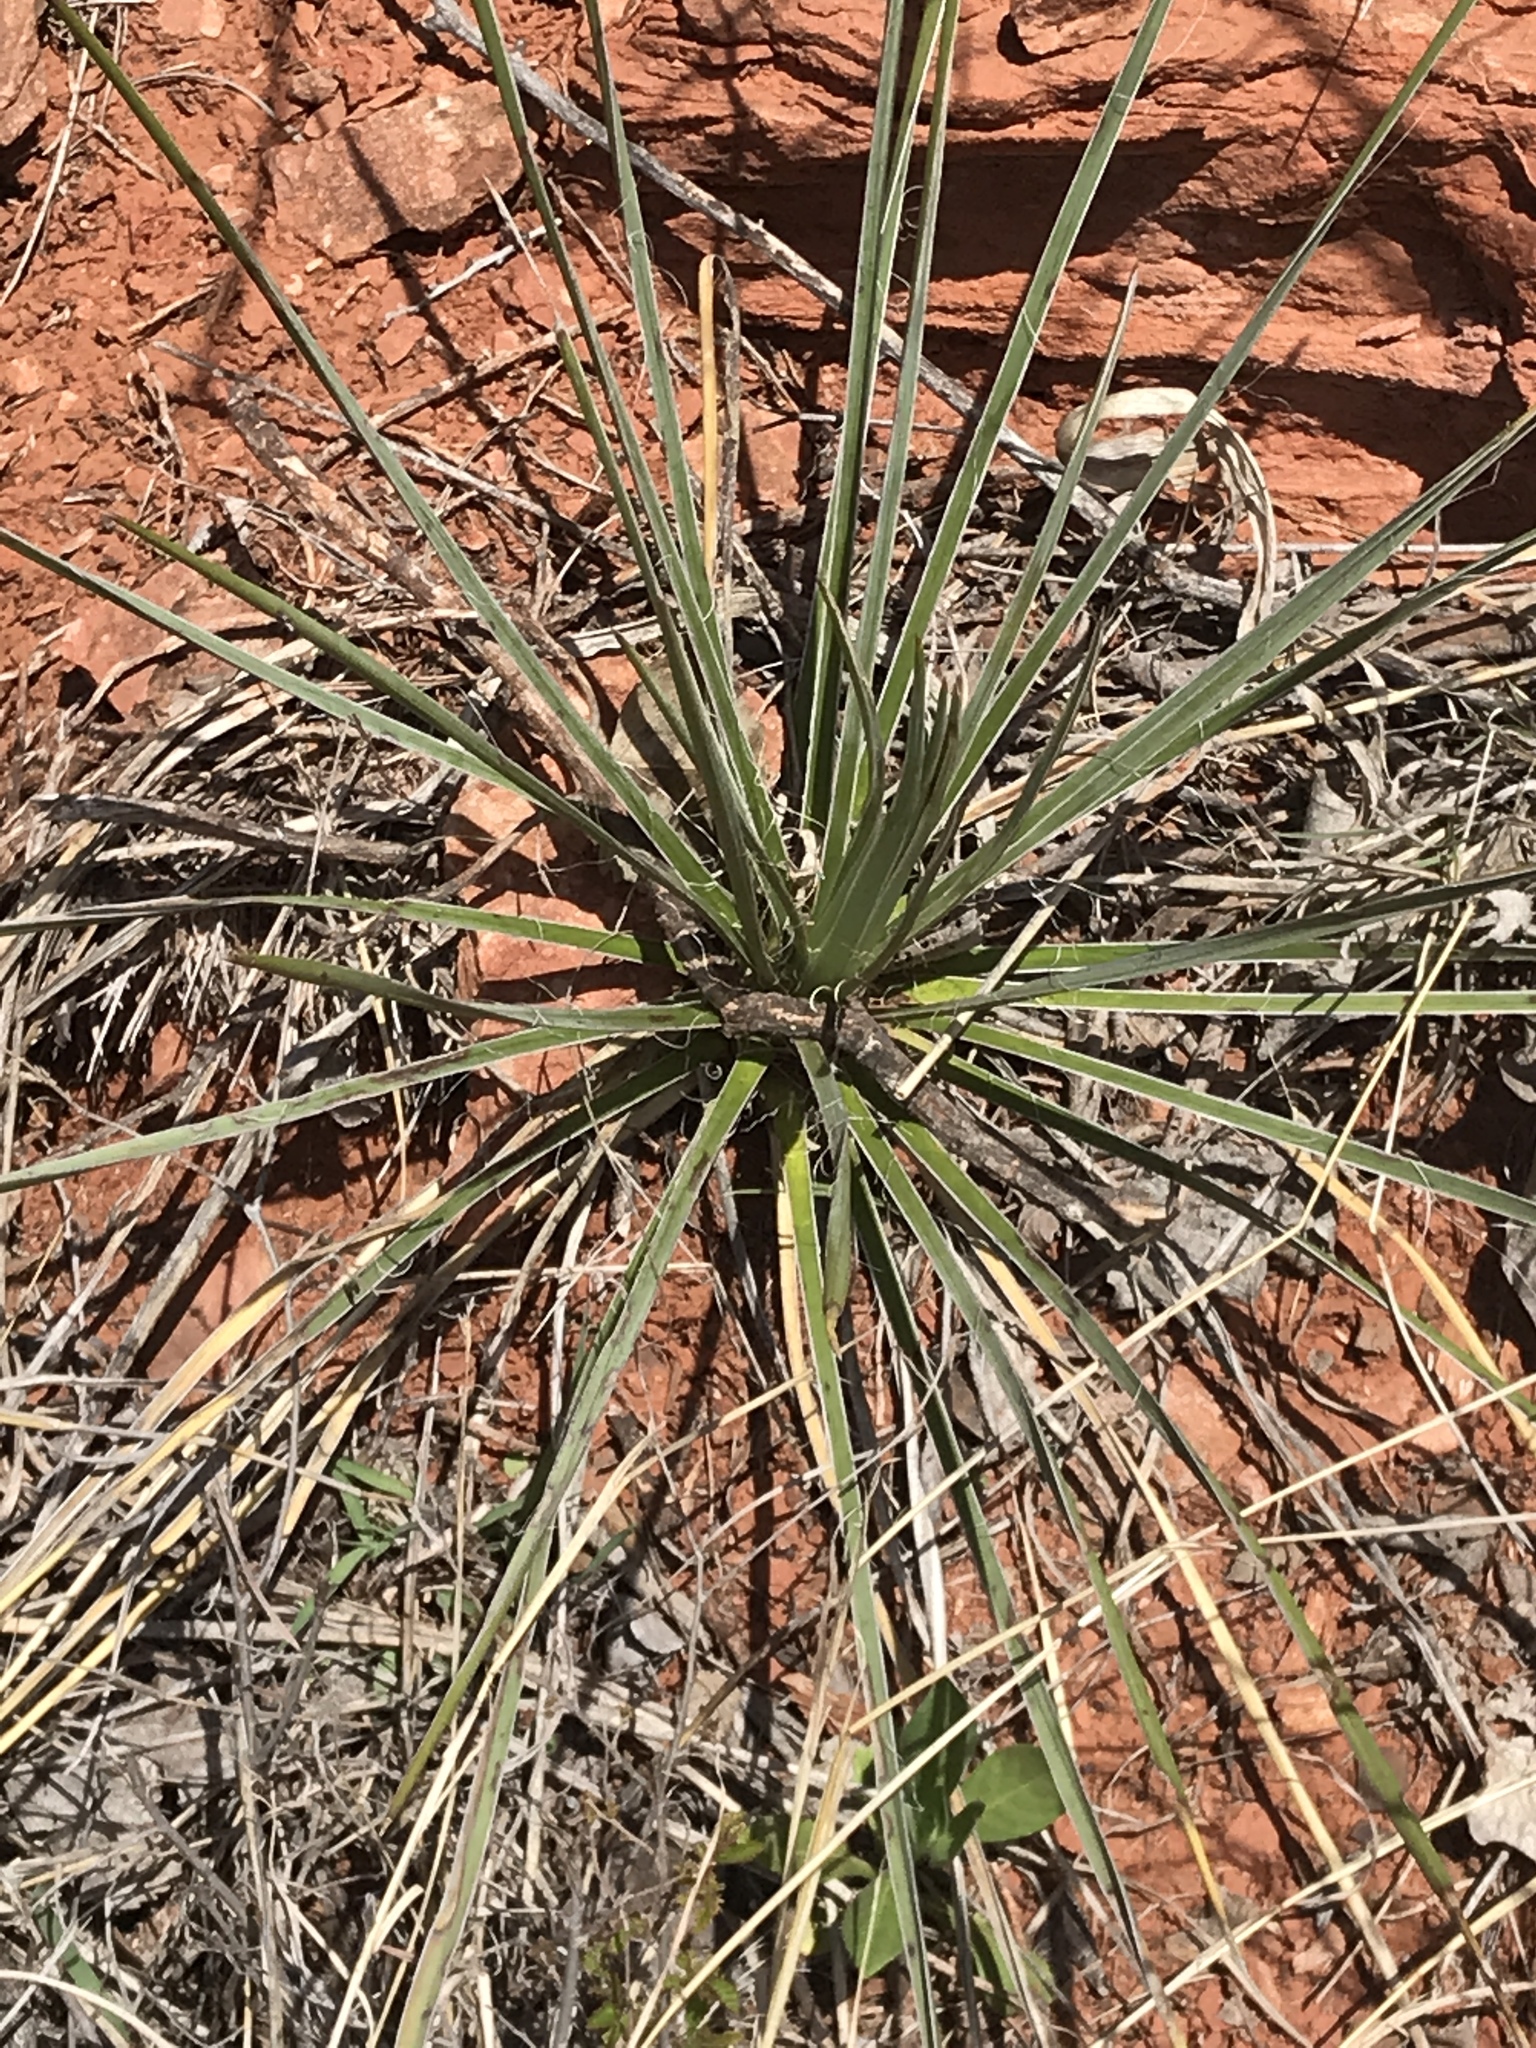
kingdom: Plantae
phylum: Tracheophyta
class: Liliopsida
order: Asparagales
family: Asparagaceae
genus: Yucca
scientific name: Yucca glauca
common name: Great plains yucca
